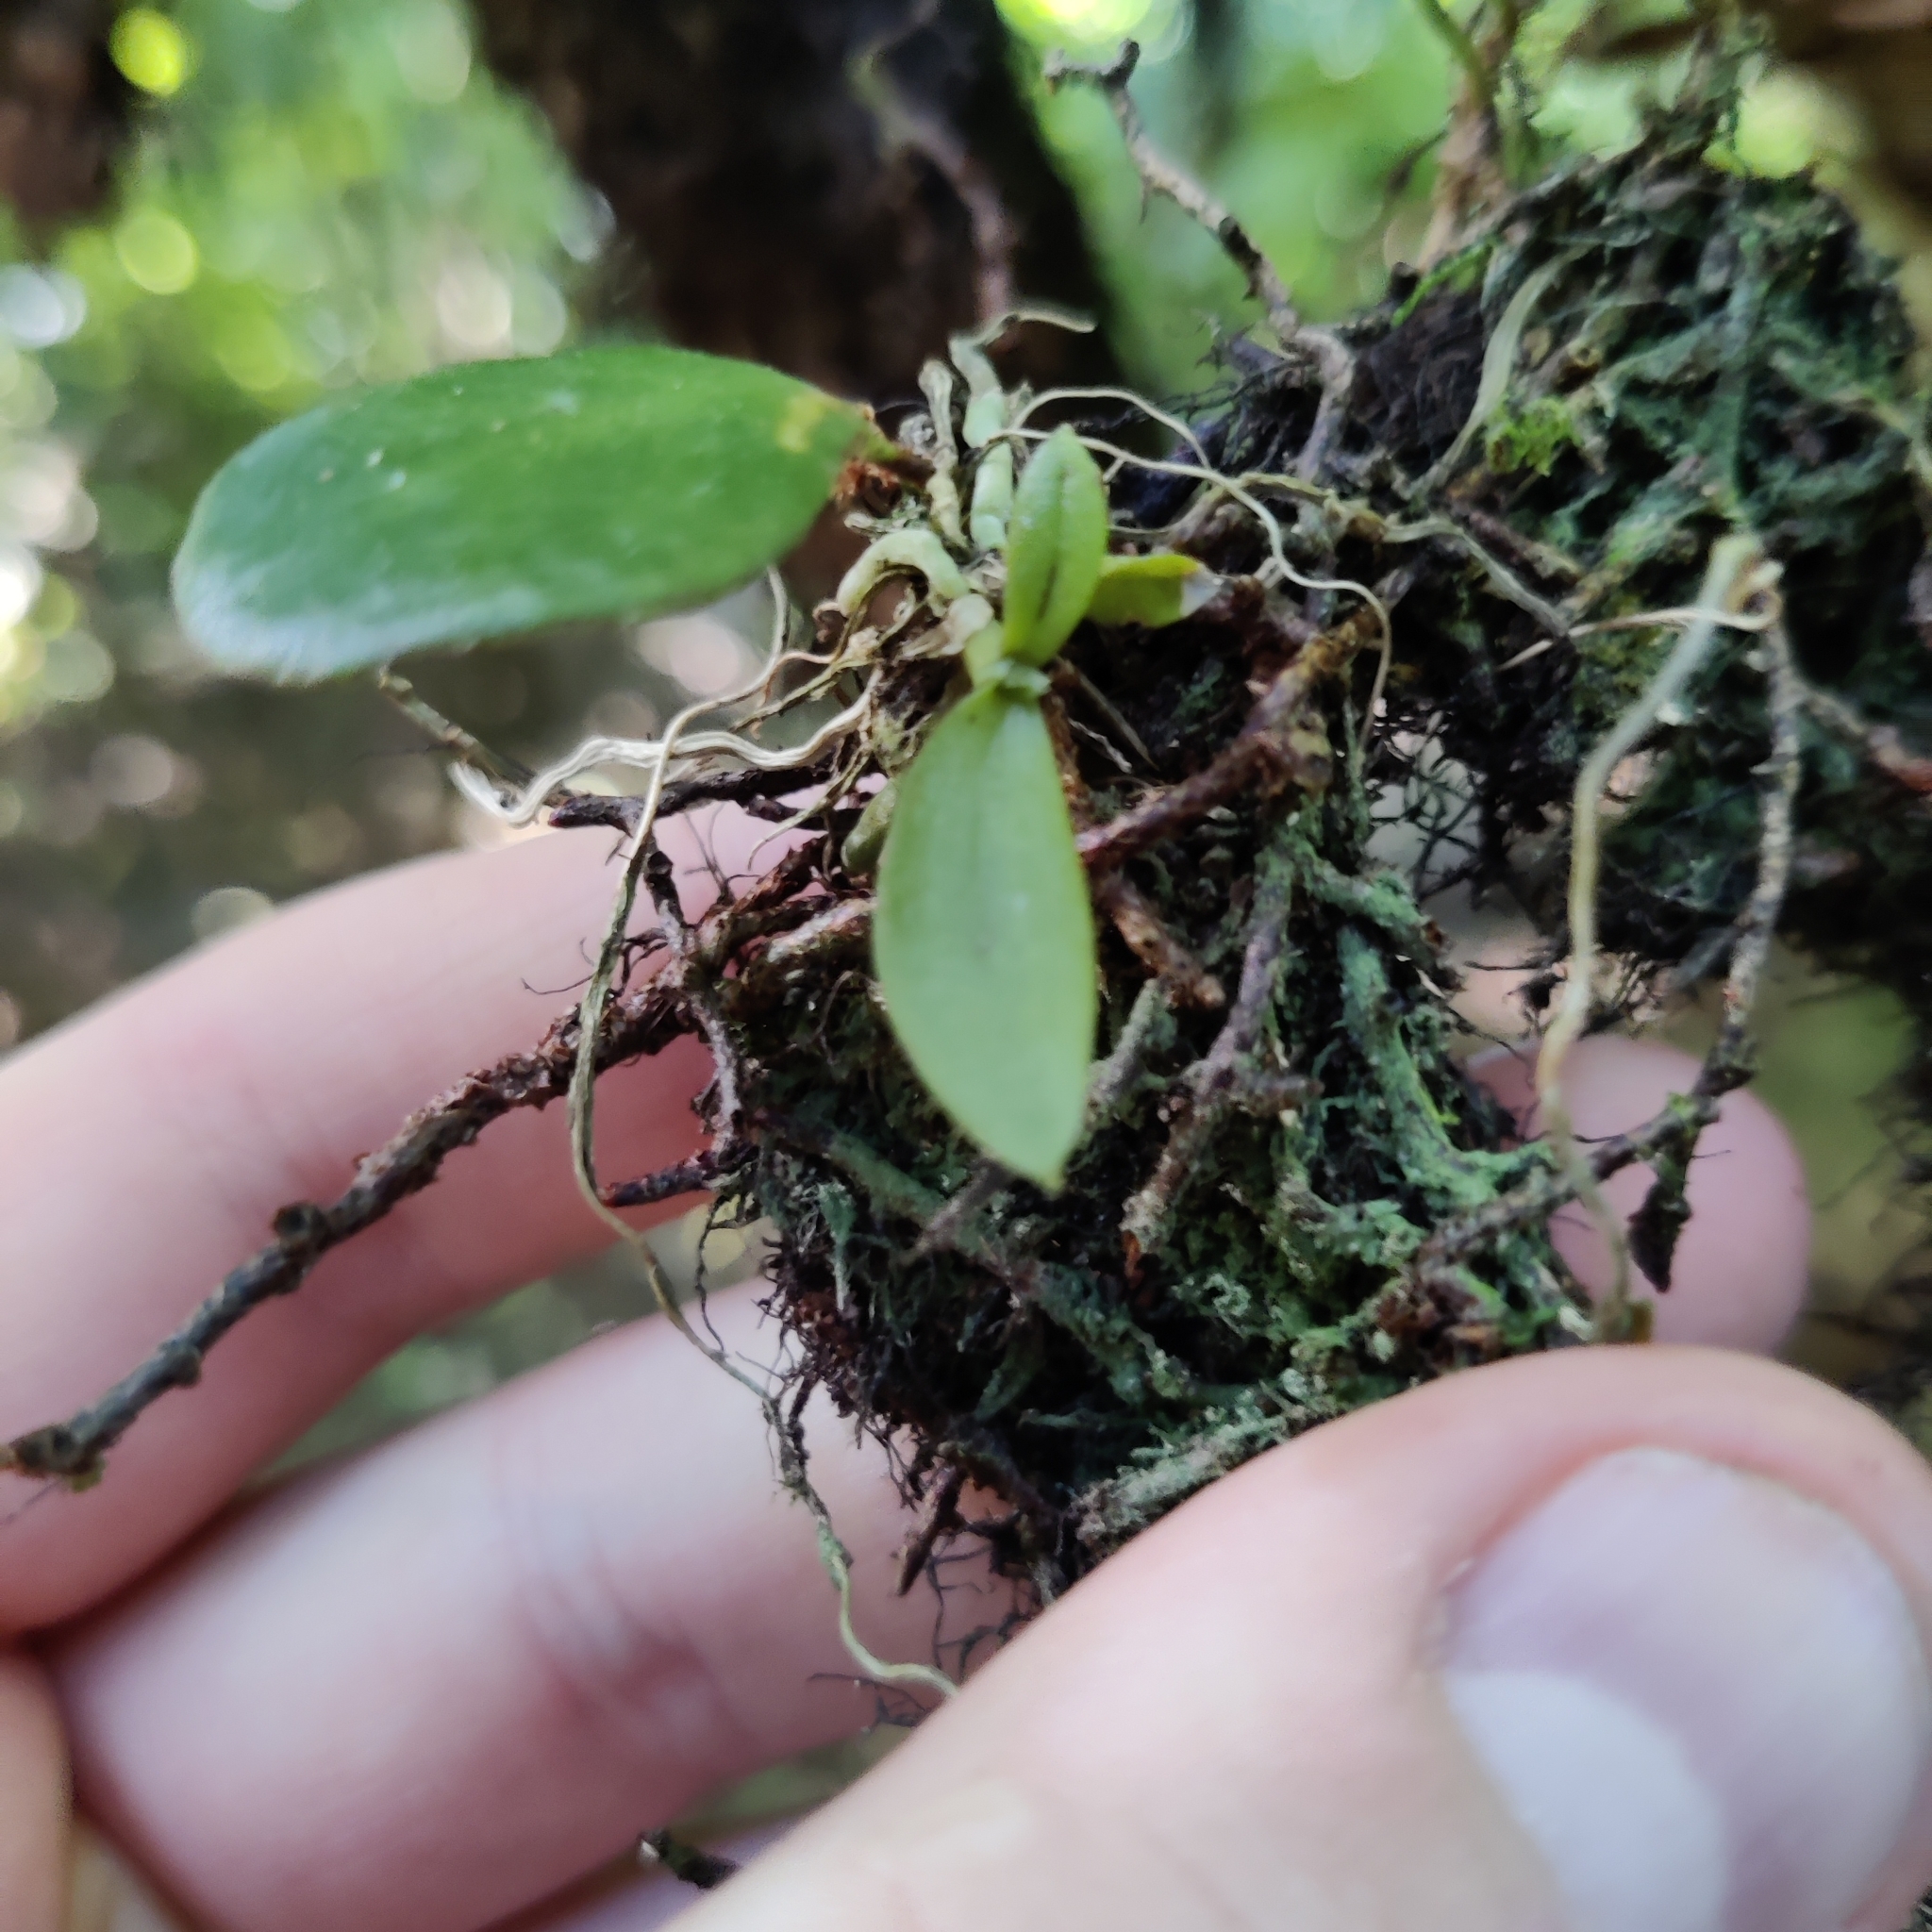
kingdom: Plantae
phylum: Tracheophyta
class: Liliopsida
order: Asparagales
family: Orchidaceae
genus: Drymoanthus
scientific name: Drymoanthus adversus
